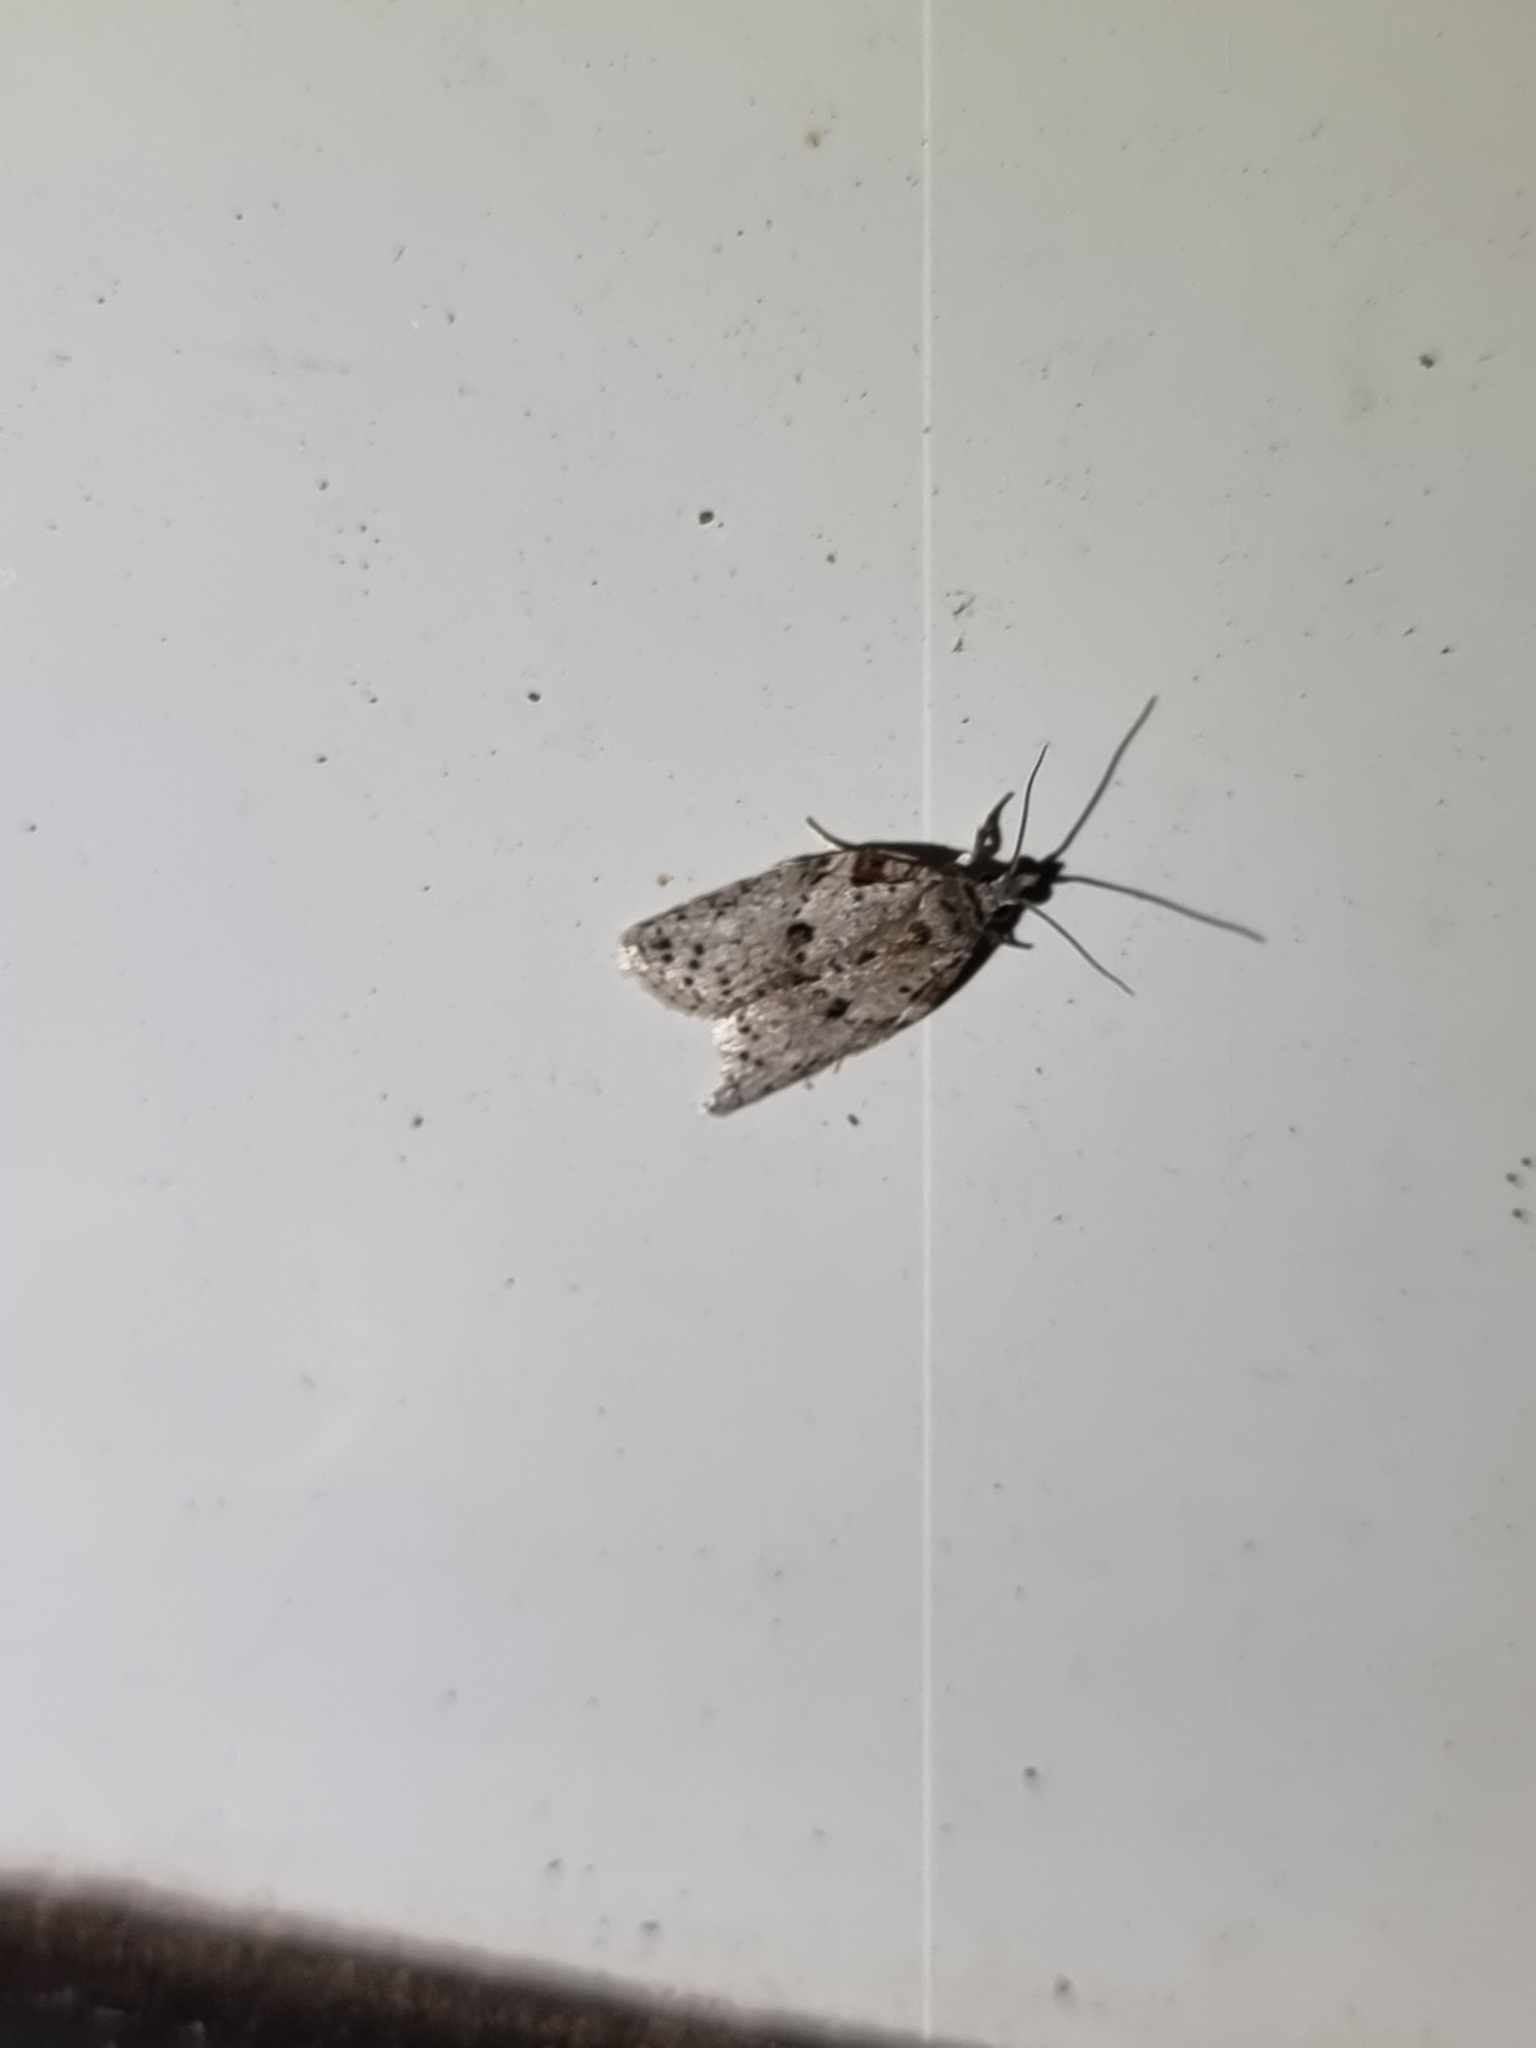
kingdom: Animalia
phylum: Arthropoda
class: Insecta
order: Lepidoptera
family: Tortricidae
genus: Isotenes
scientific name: Isotenes miserana
